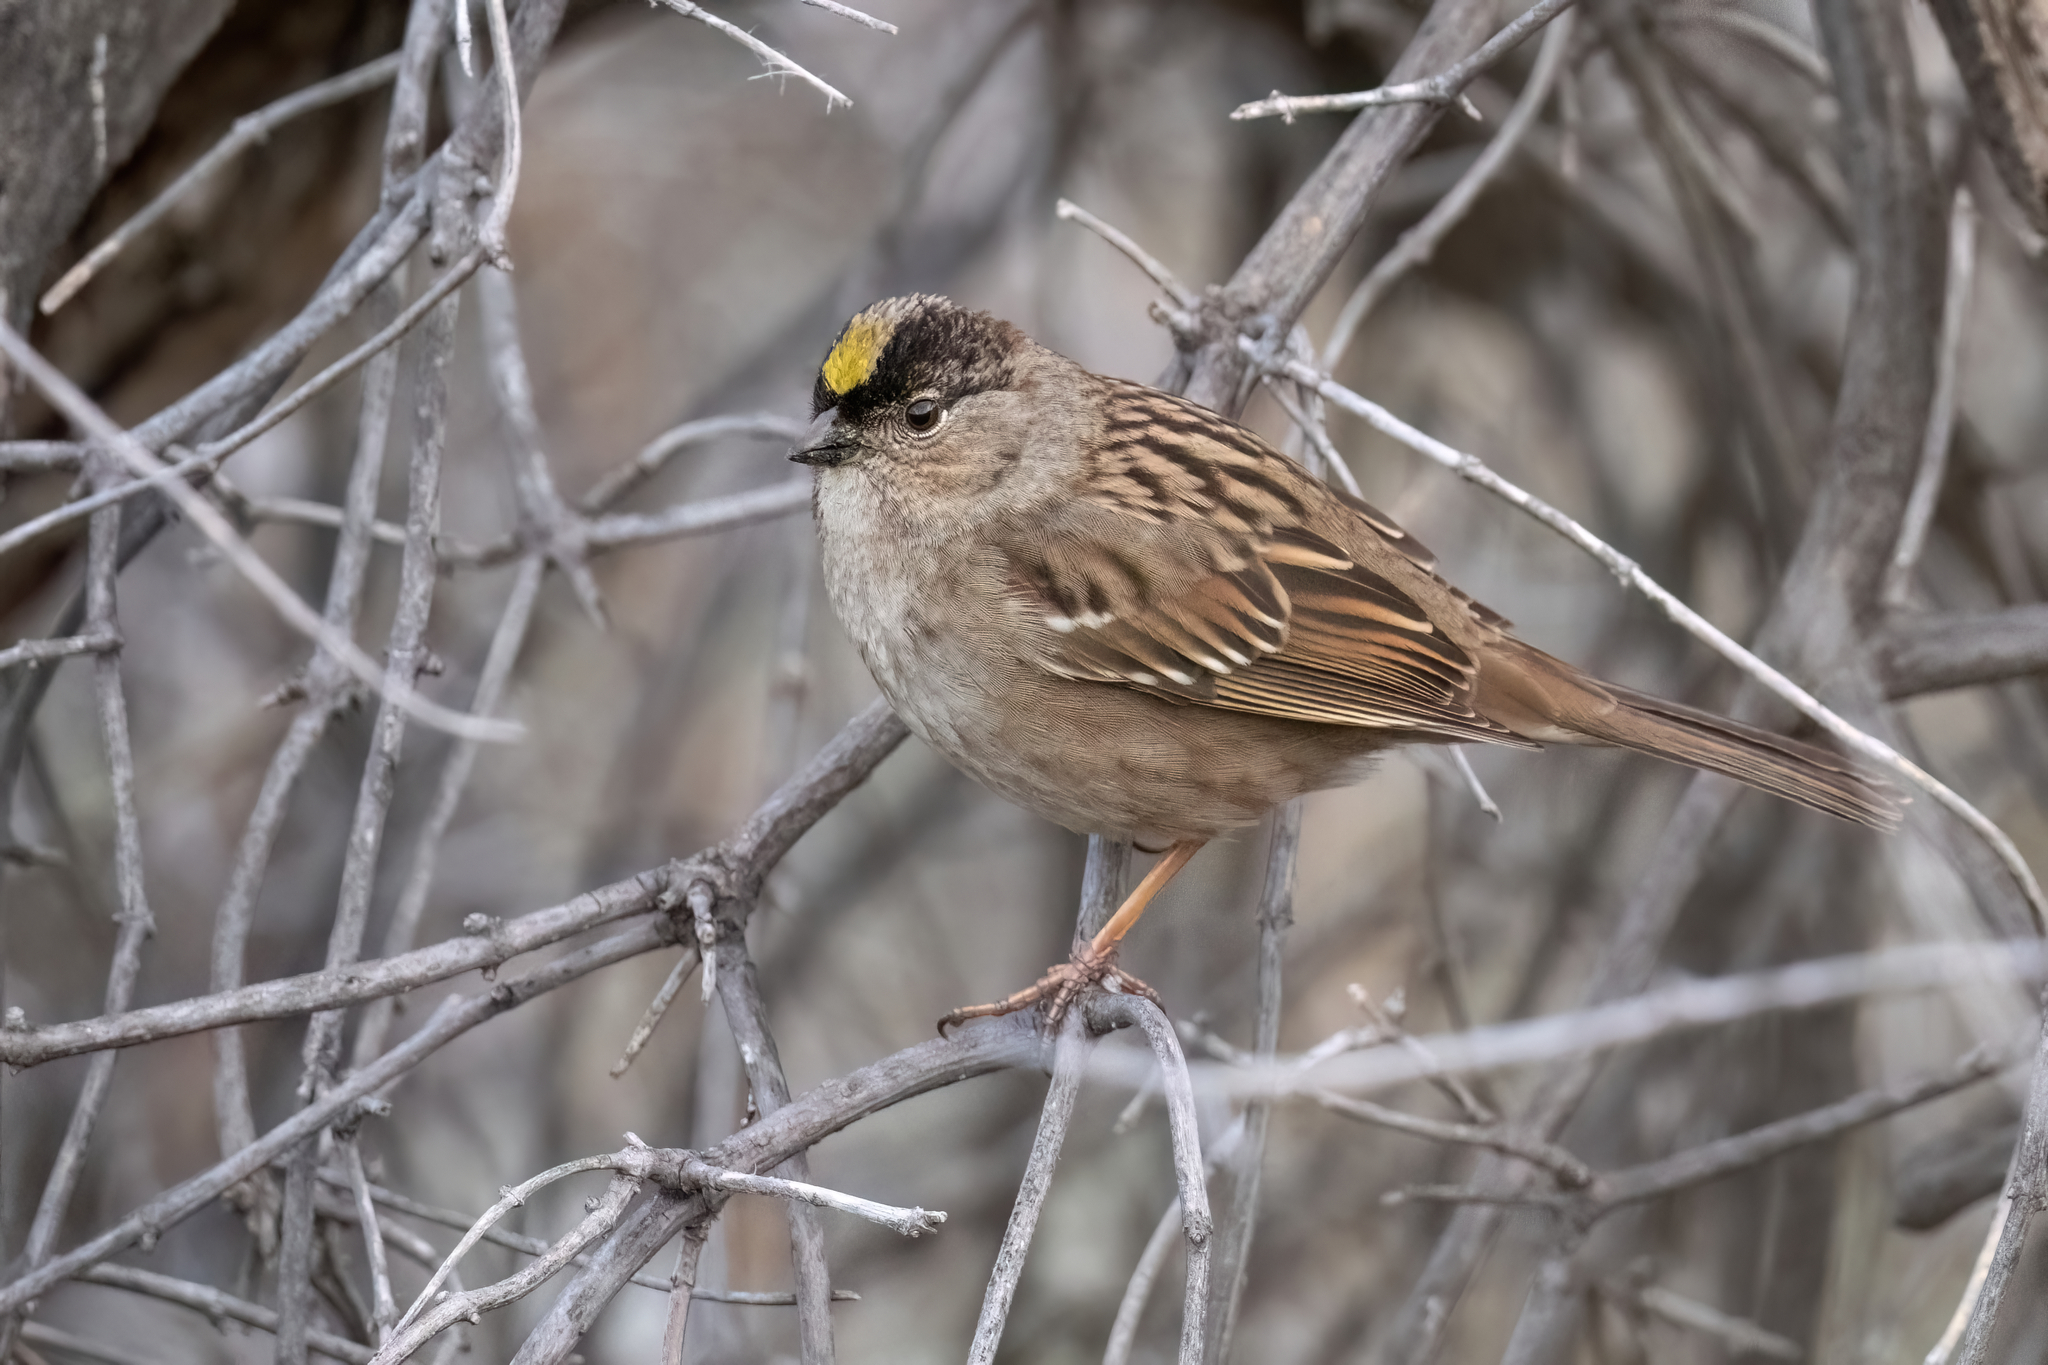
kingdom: Animalia
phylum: Chordata
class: Aves
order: Passeriformes
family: Passerellidae
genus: Zonotrichia
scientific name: Zonotrichia atricapilla
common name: Golden-crowned sparrow
